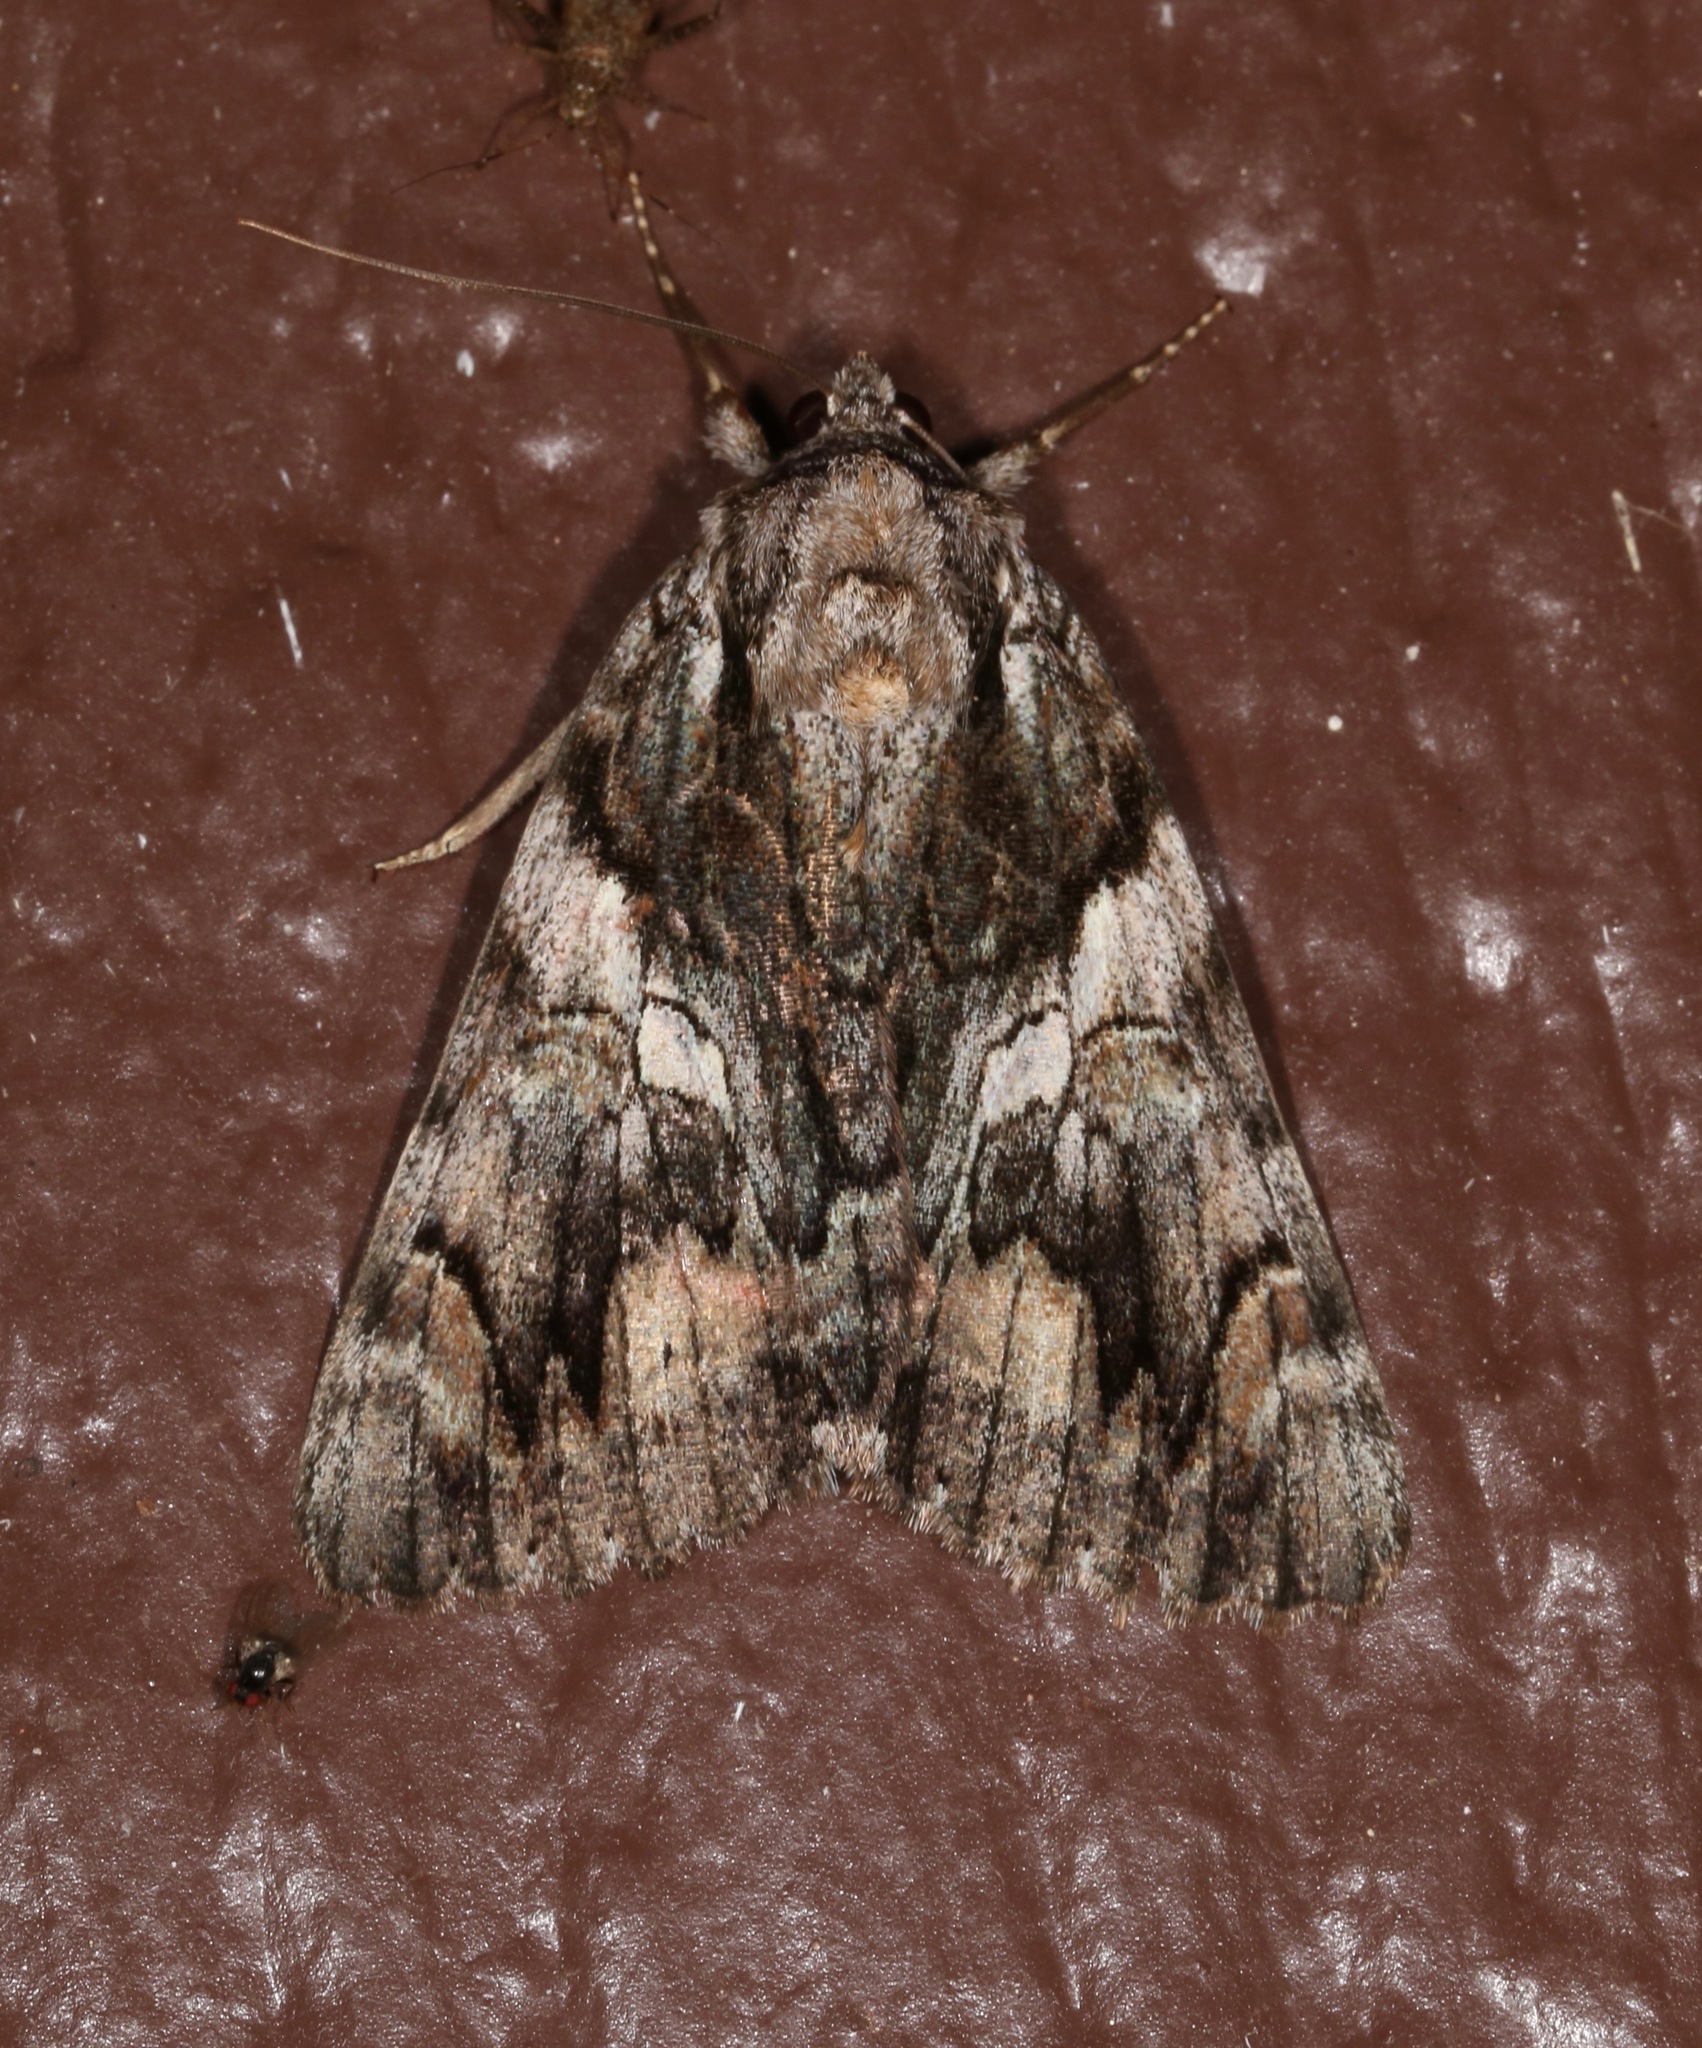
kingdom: Animalia
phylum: Arthropoda
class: Insecta
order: Lepidoptera
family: Erebidae
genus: Catocala
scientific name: Catocala verrilliana
